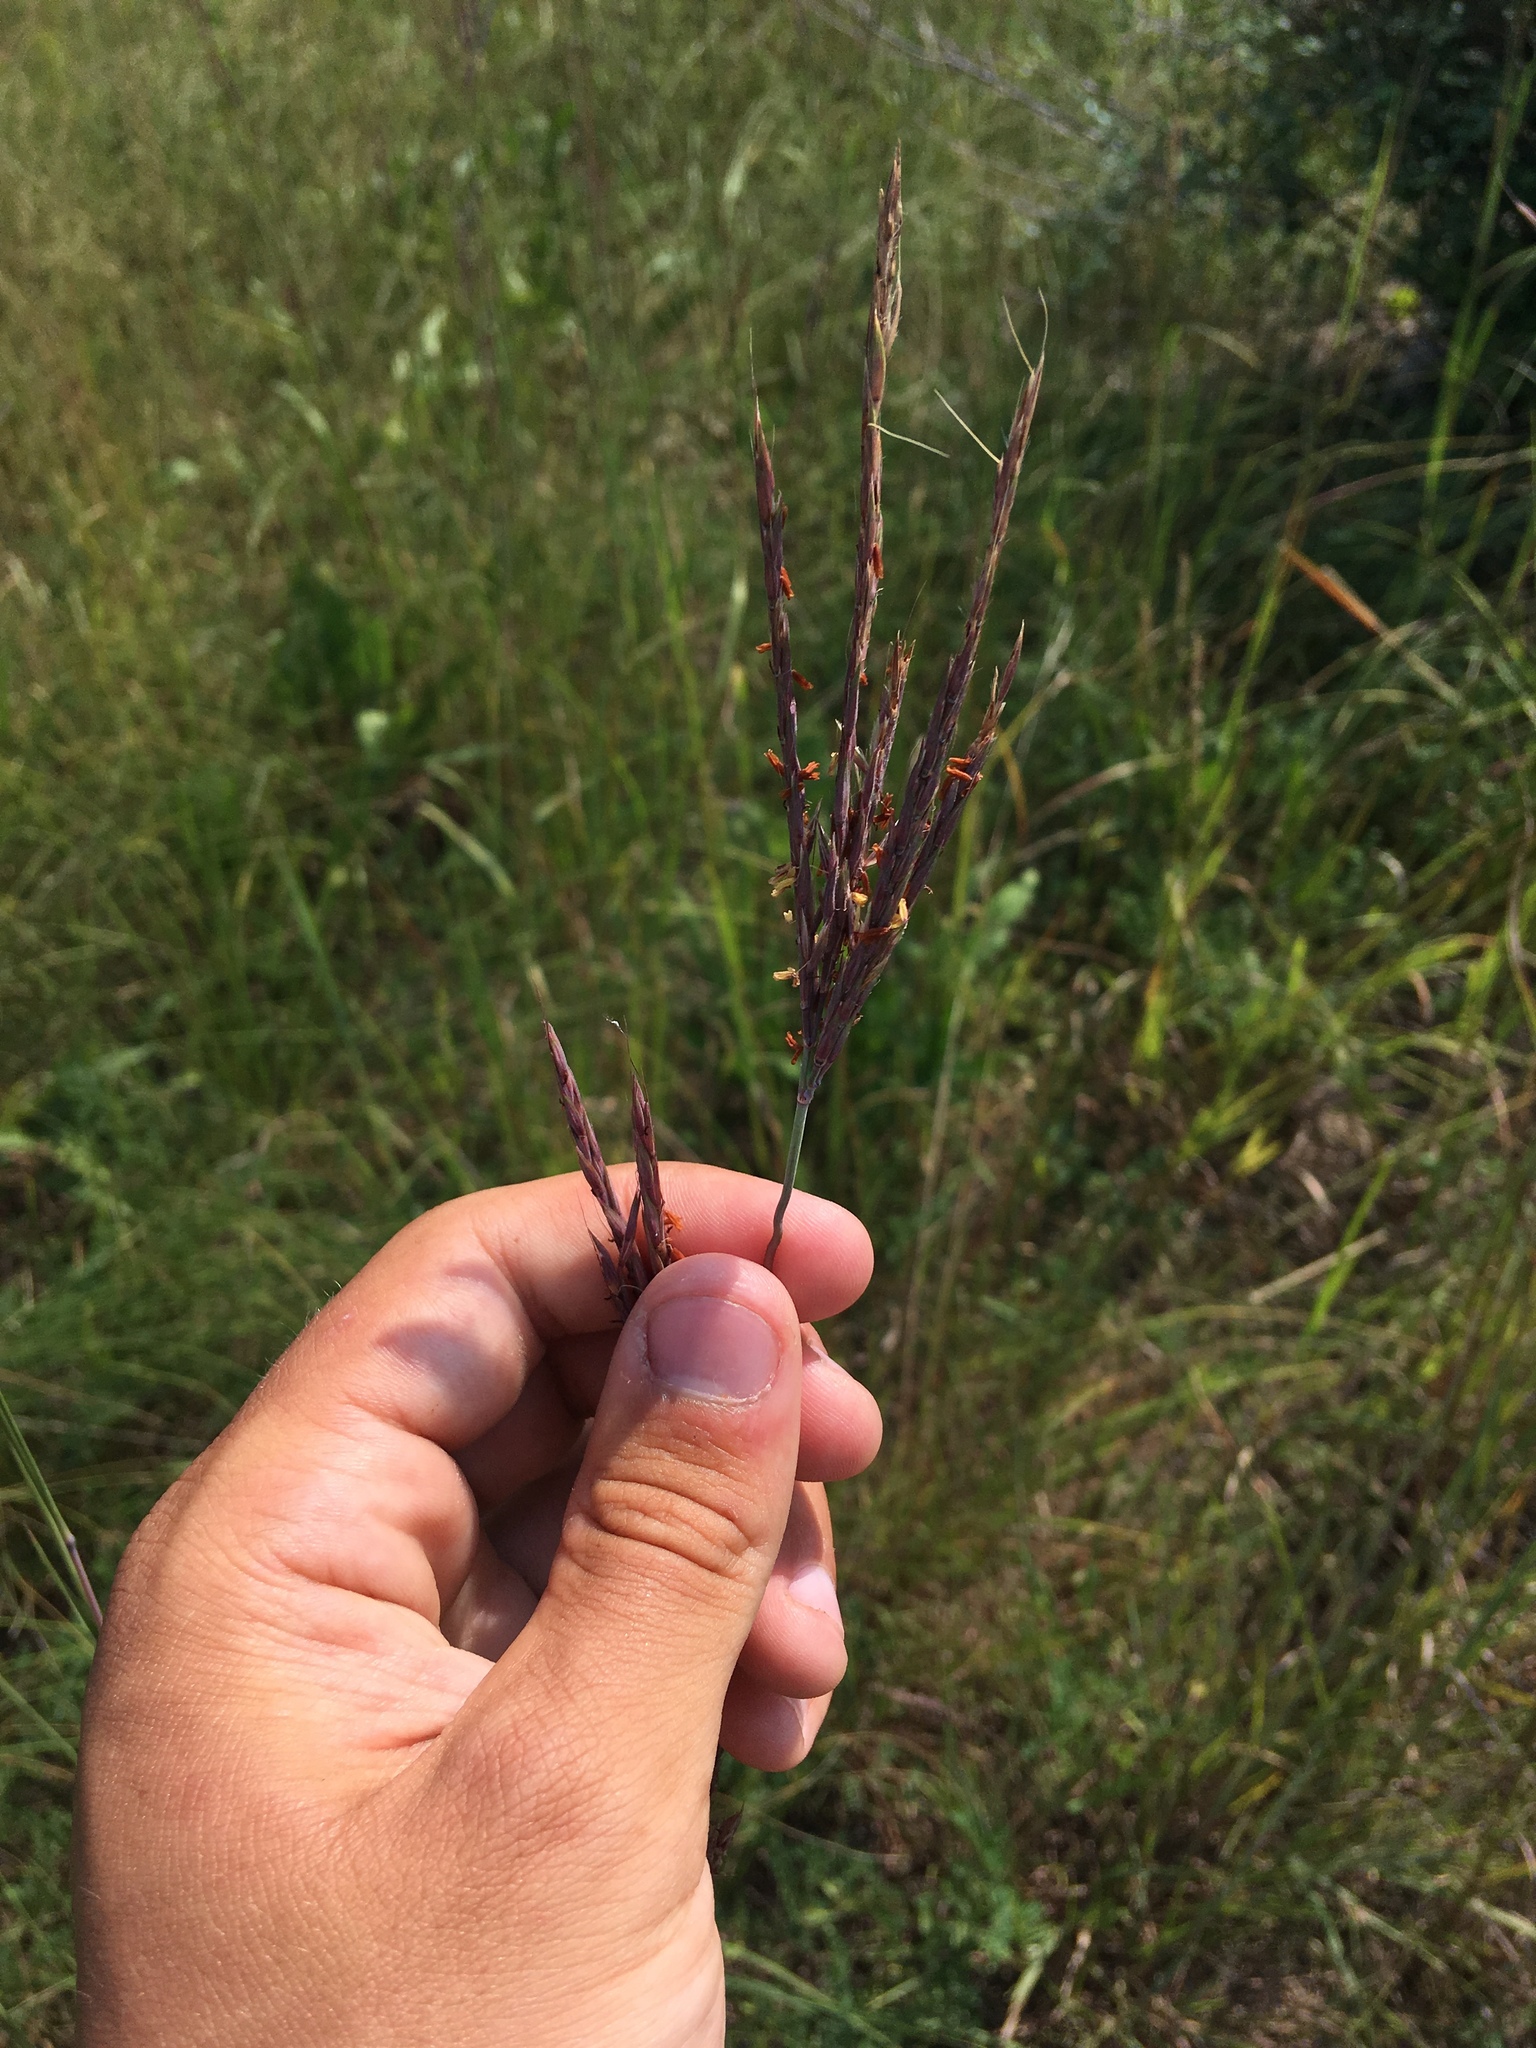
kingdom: Plantae
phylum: Tracheophyta
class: Liliopsida
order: Poales
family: Poaceae
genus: Andropogon
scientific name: Andropogon gerardi
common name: Big bluestem
